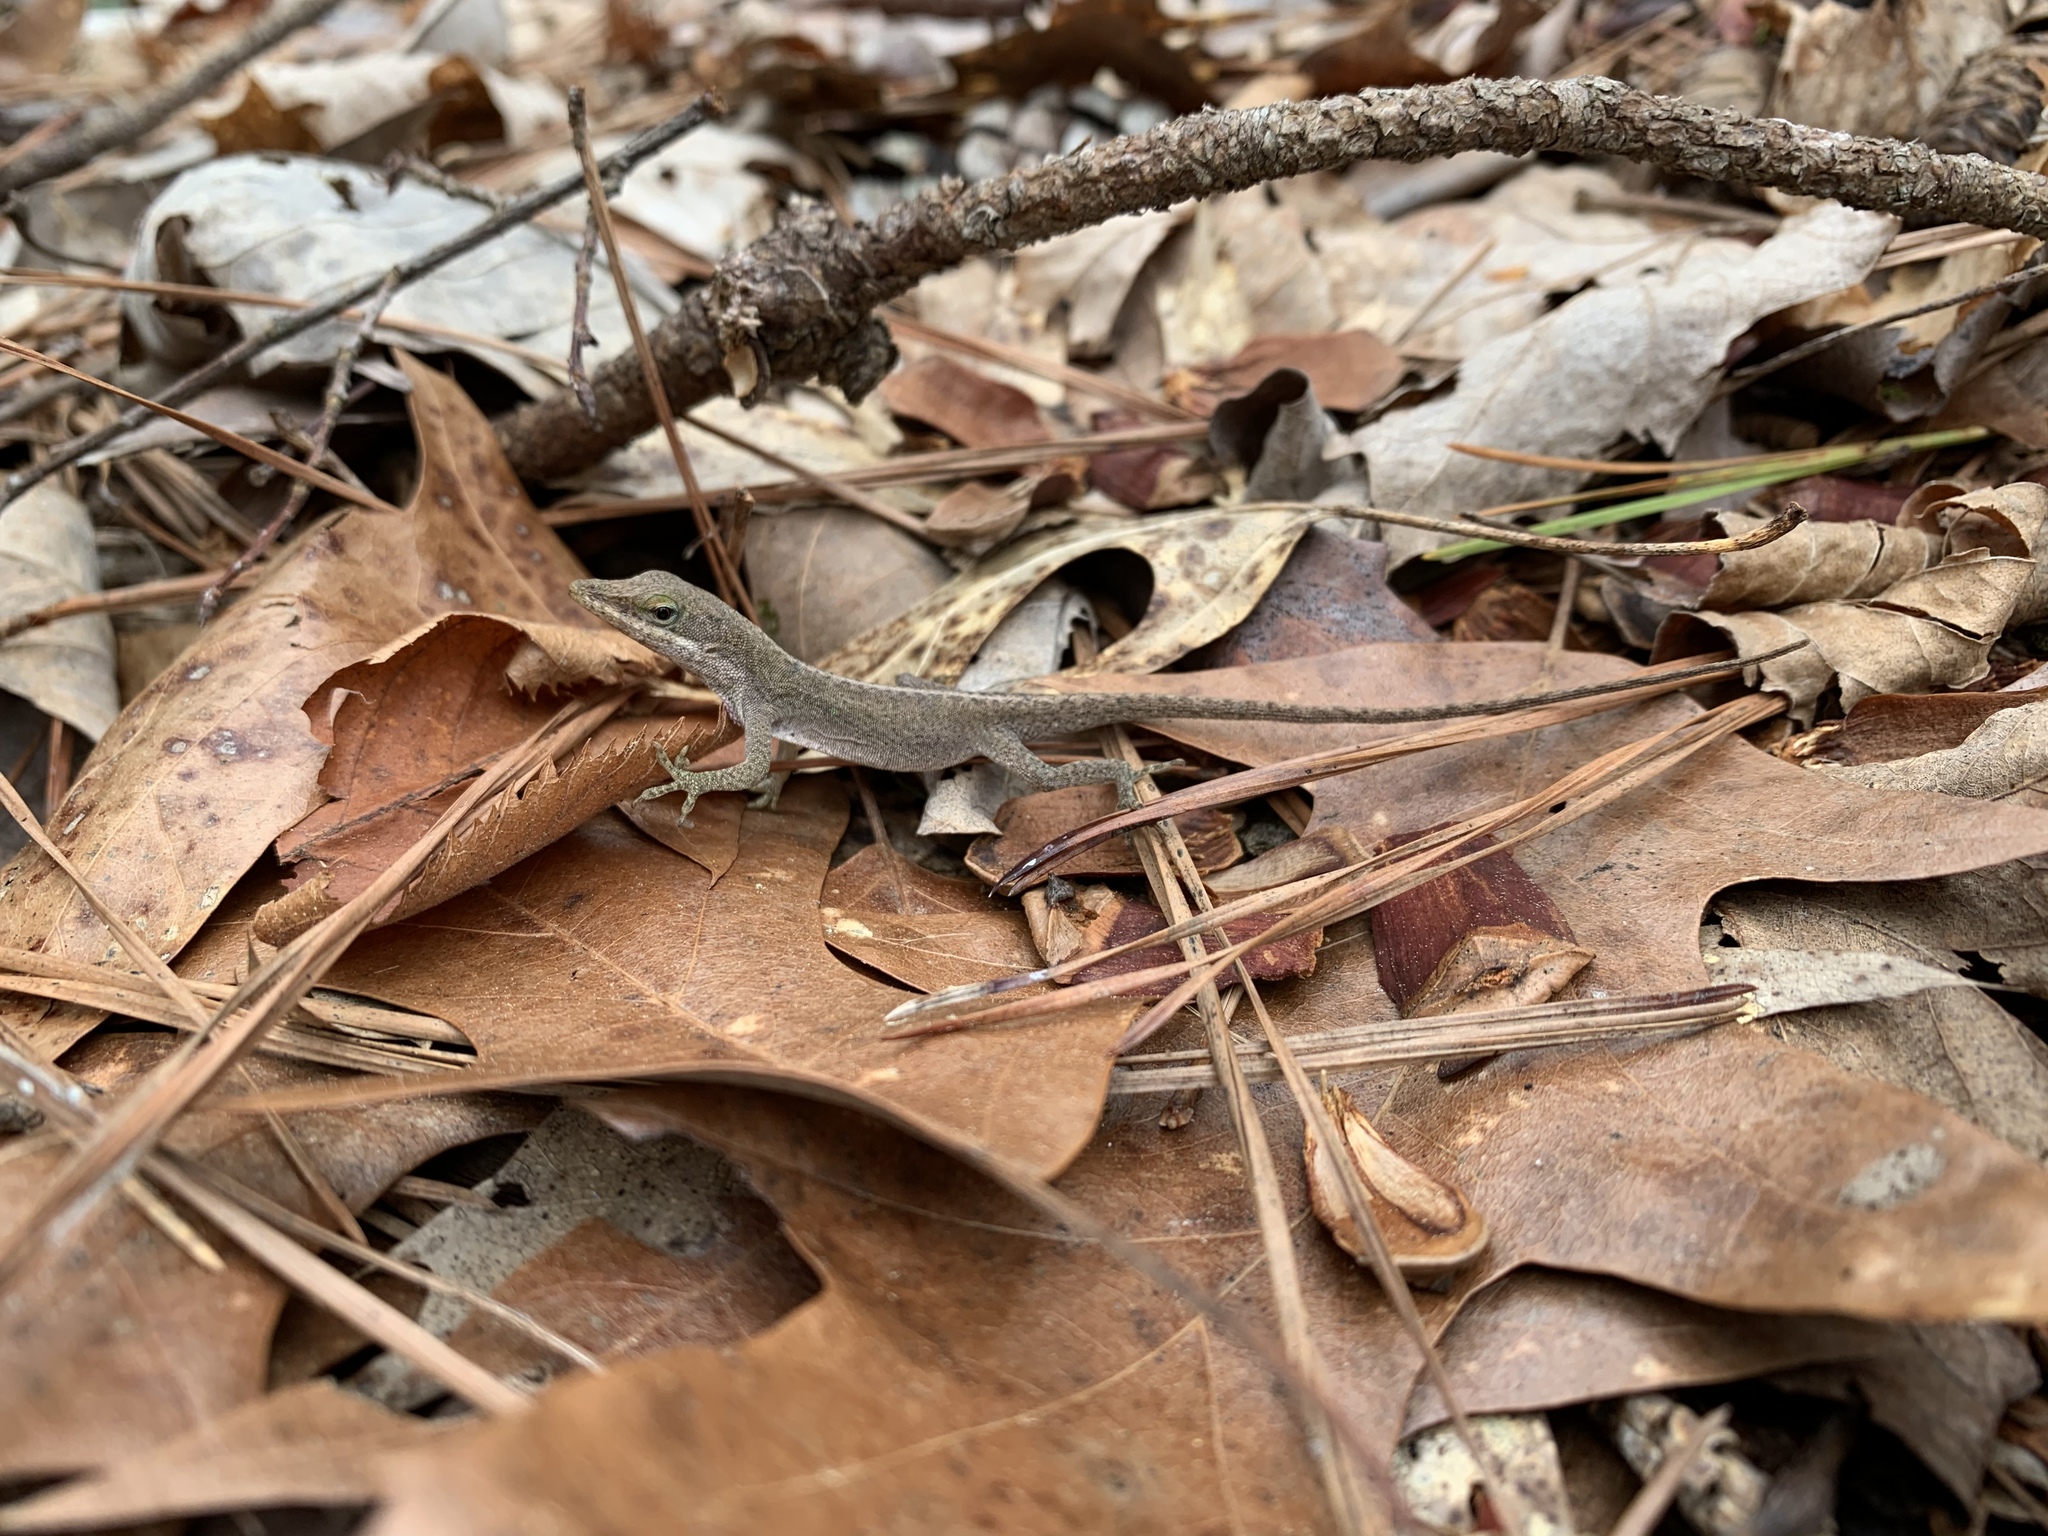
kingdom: Animalia
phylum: Chordata
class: Squamata
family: Dactyloidae
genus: Anolis
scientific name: Anolis carolinensis
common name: Green anole
